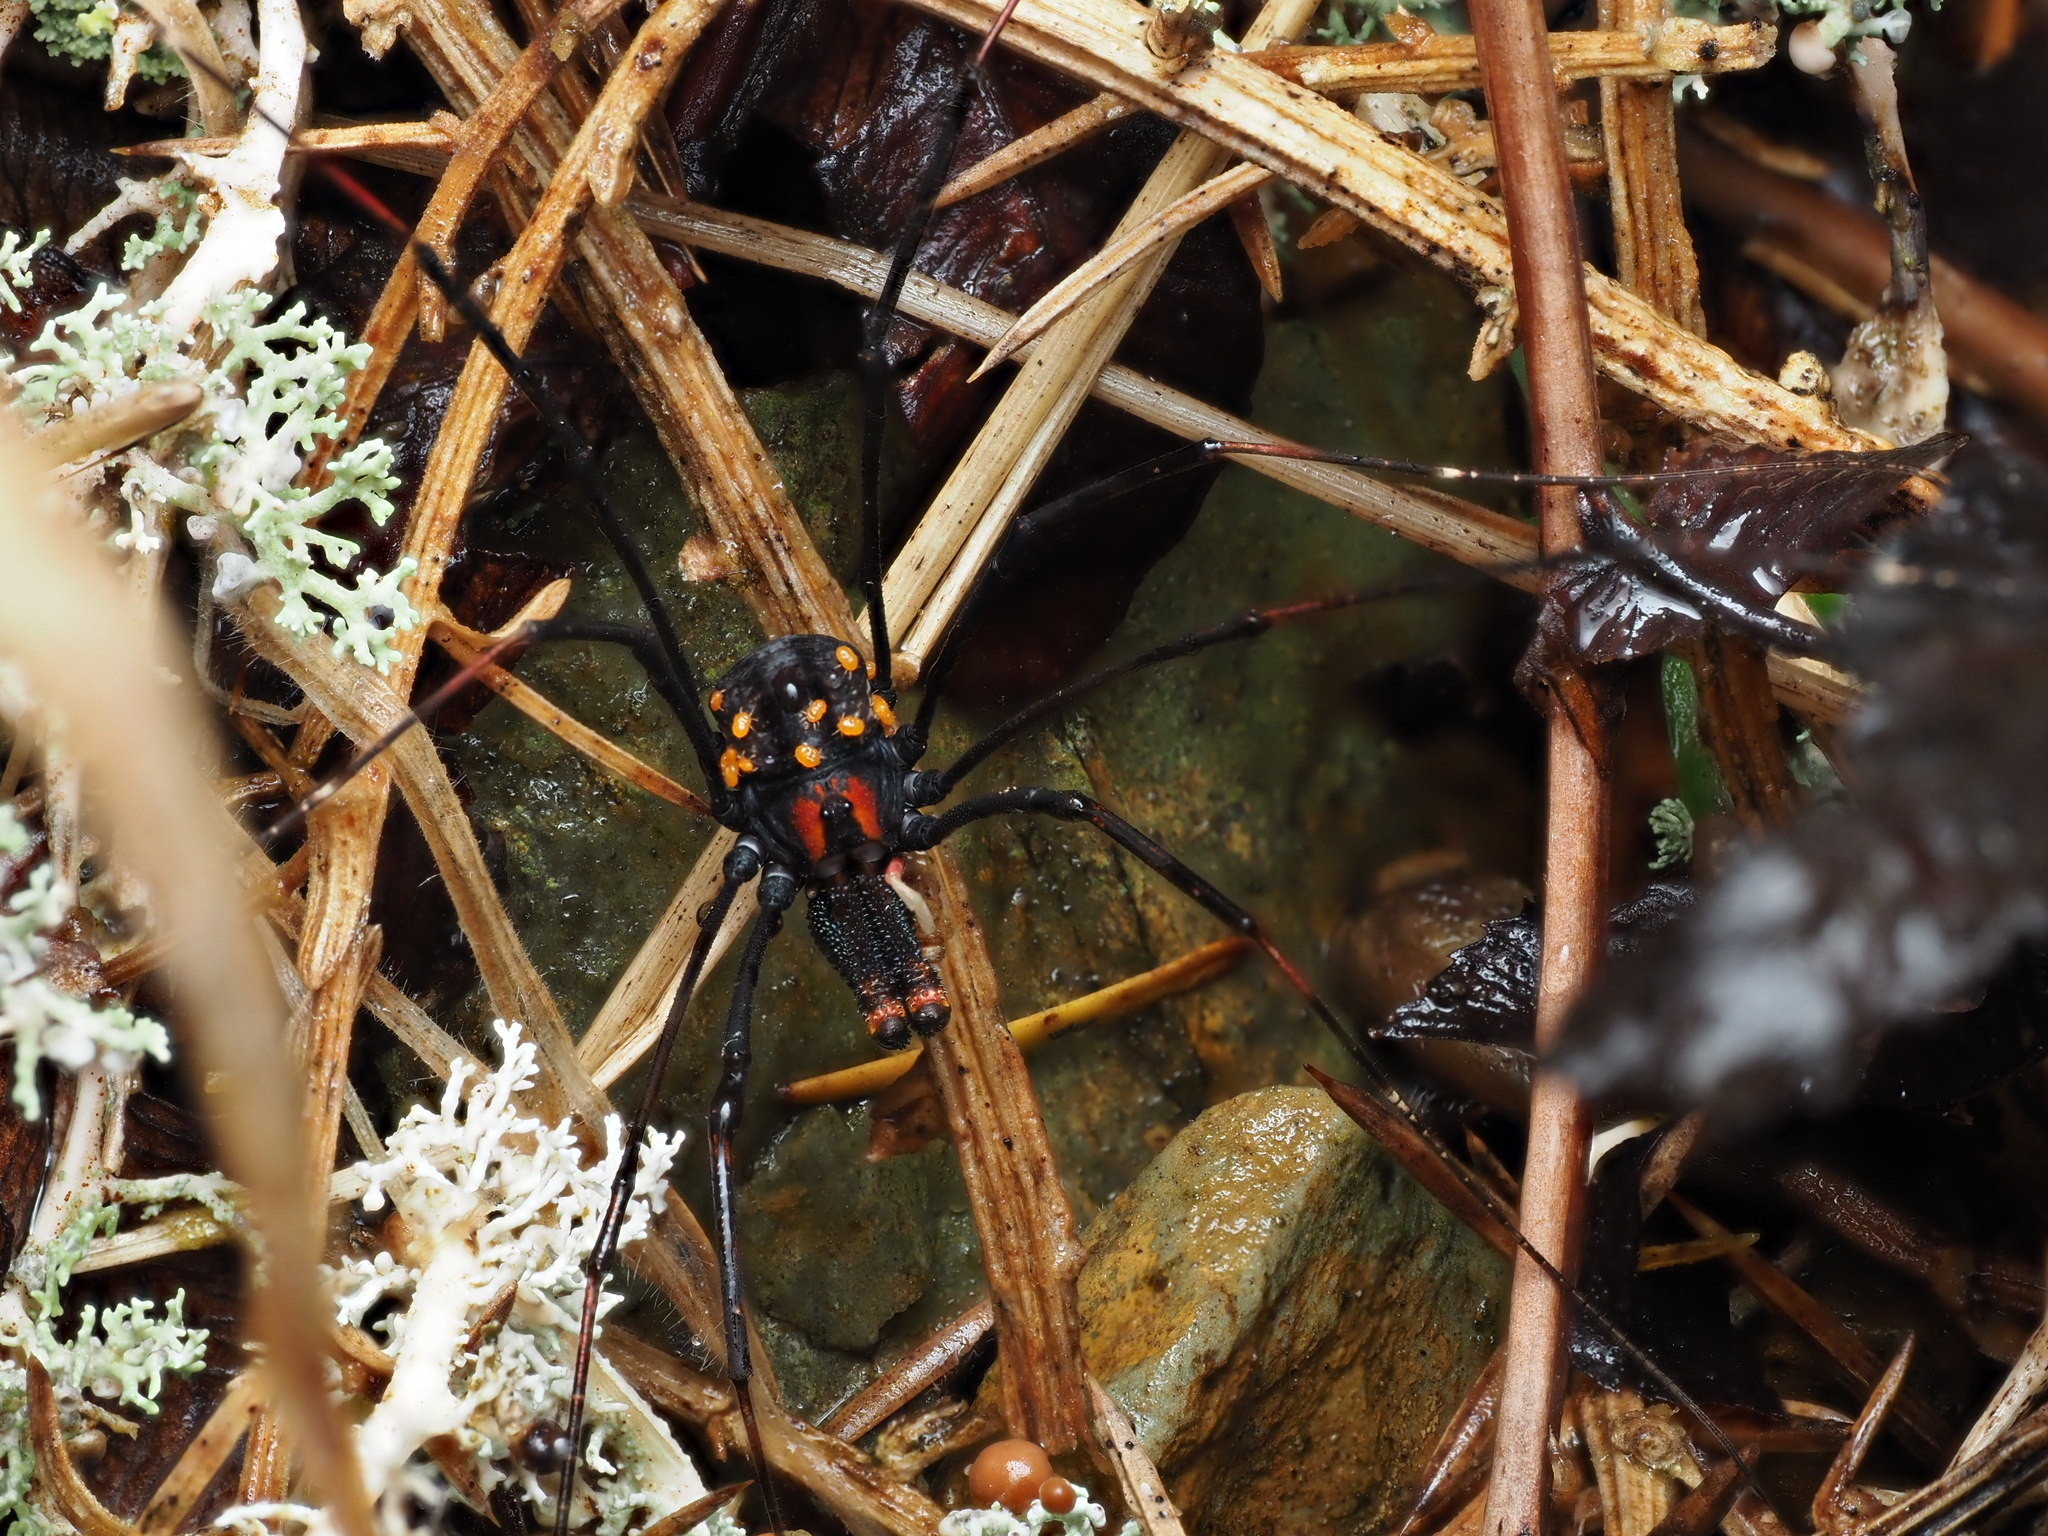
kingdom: Animalia
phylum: Arthropoda
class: Arachnida
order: Opiliones
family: Neopilionidae
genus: Forsteropsalis
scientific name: Forsteropsalis inconstans
